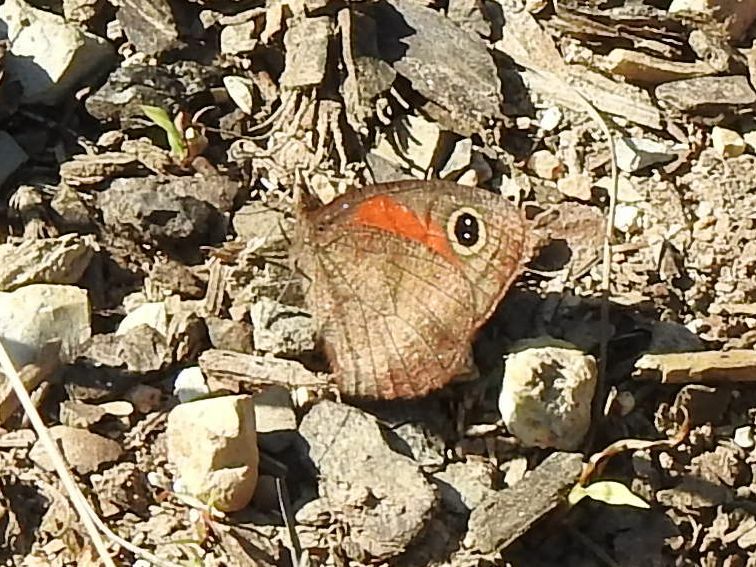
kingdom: Animalia
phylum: Arthropoda
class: Insecta
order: Lepidoptera
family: Nymphalidae
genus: Cassionympha
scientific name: Cassionympha cassius
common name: Rainforest brown
